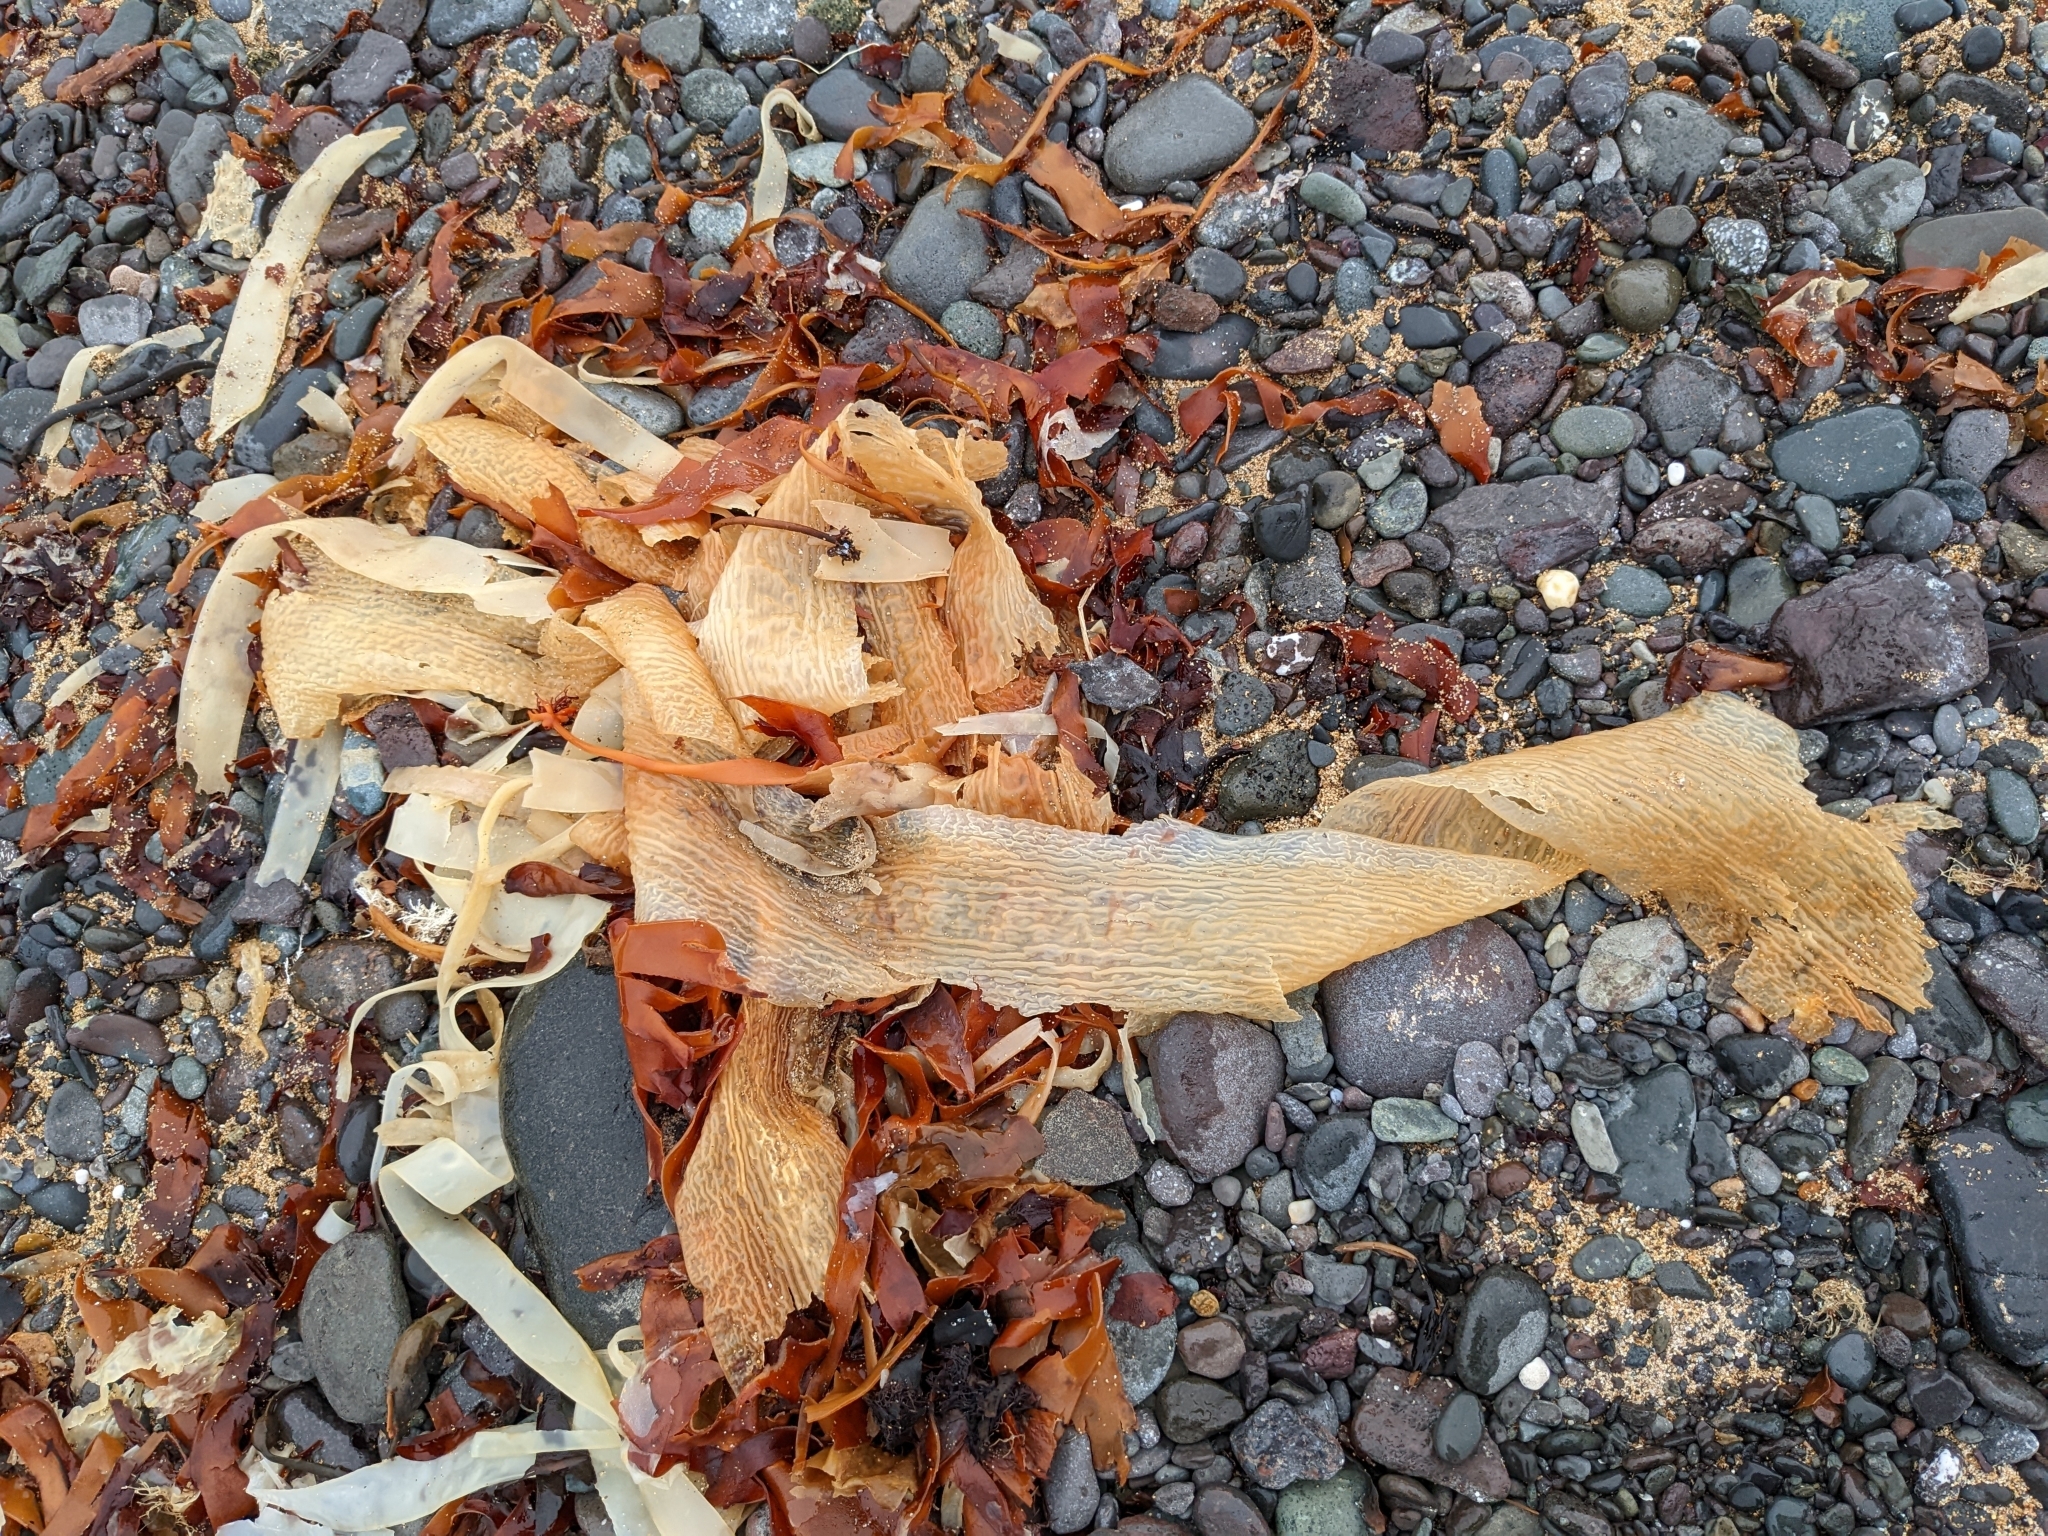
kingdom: Chromista
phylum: Ochrophyta
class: Phaeophyceae
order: Laminariales
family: Laminariaceae
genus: Saccharina
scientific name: Saccharina latissima
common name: Poor man's weather glass
